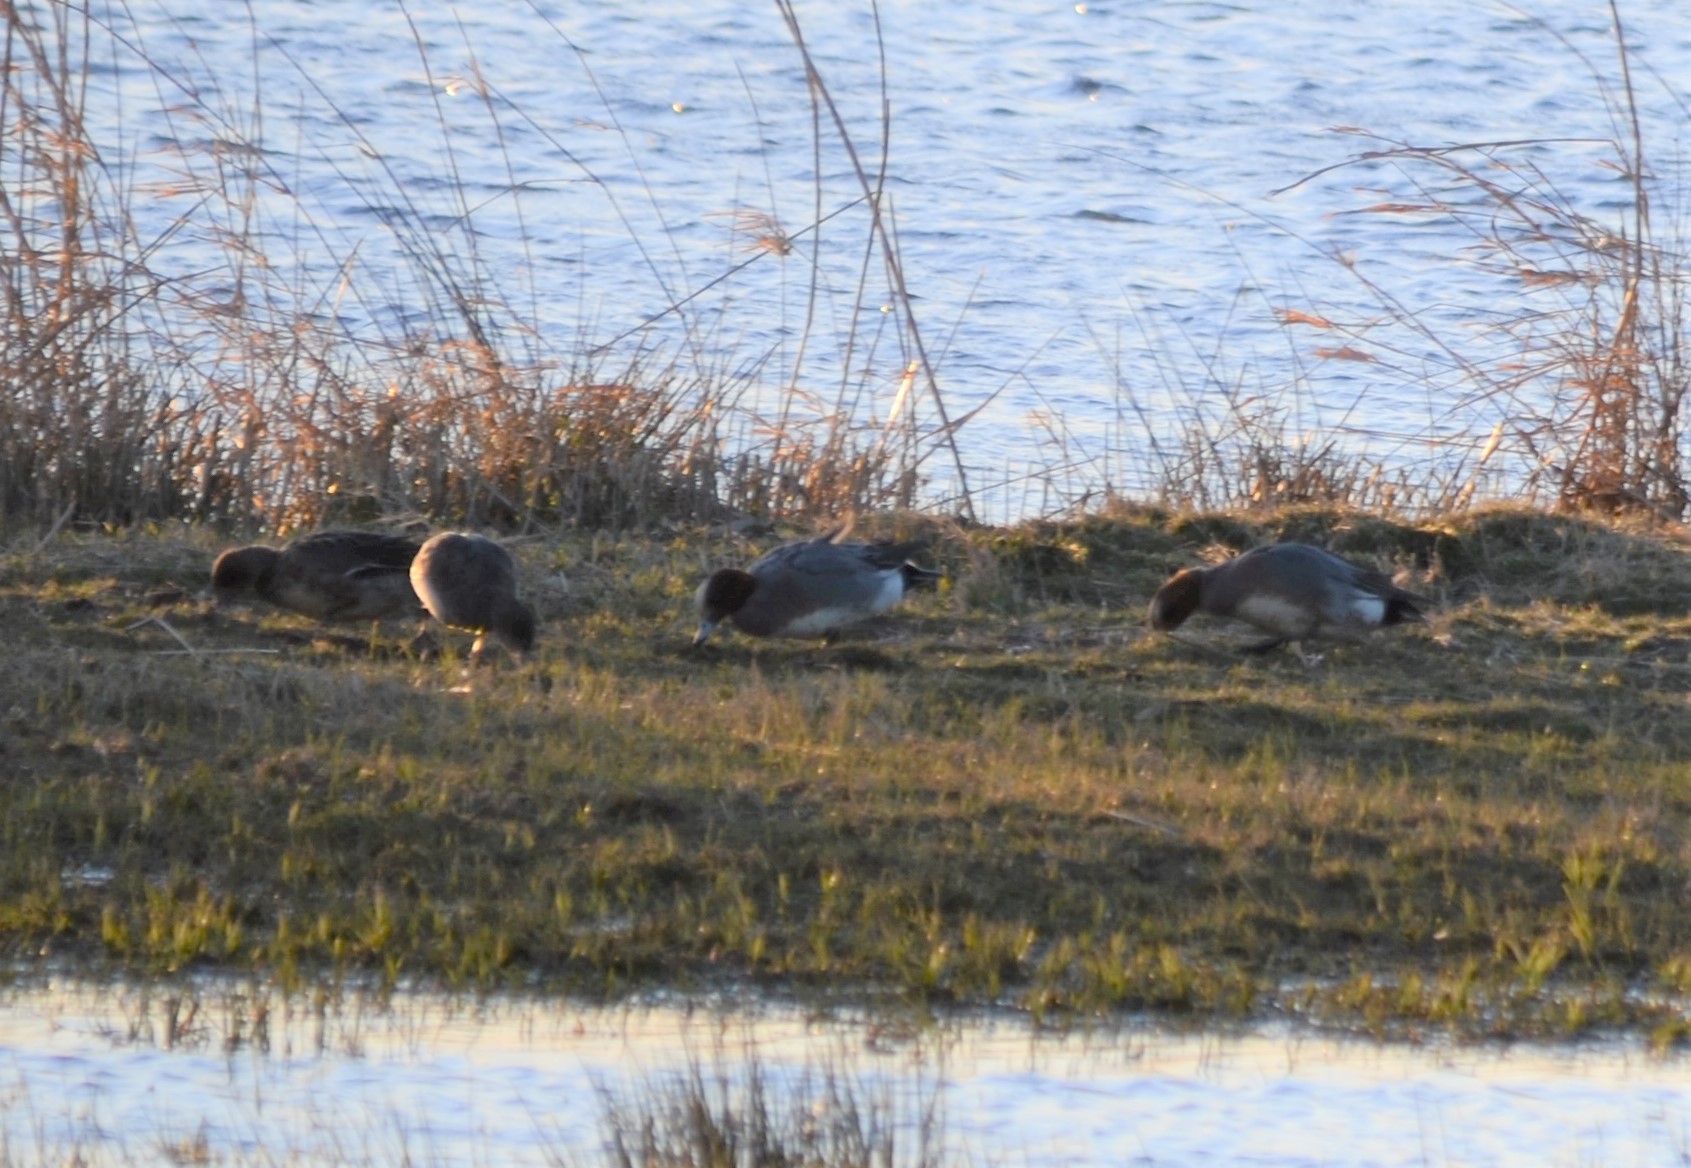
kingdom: Animalia
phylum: Chordata
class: Aves
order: Anseriformes
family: Anatidae
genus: Mareca
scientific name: Mareca penelope
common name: Eurasian wigeon
